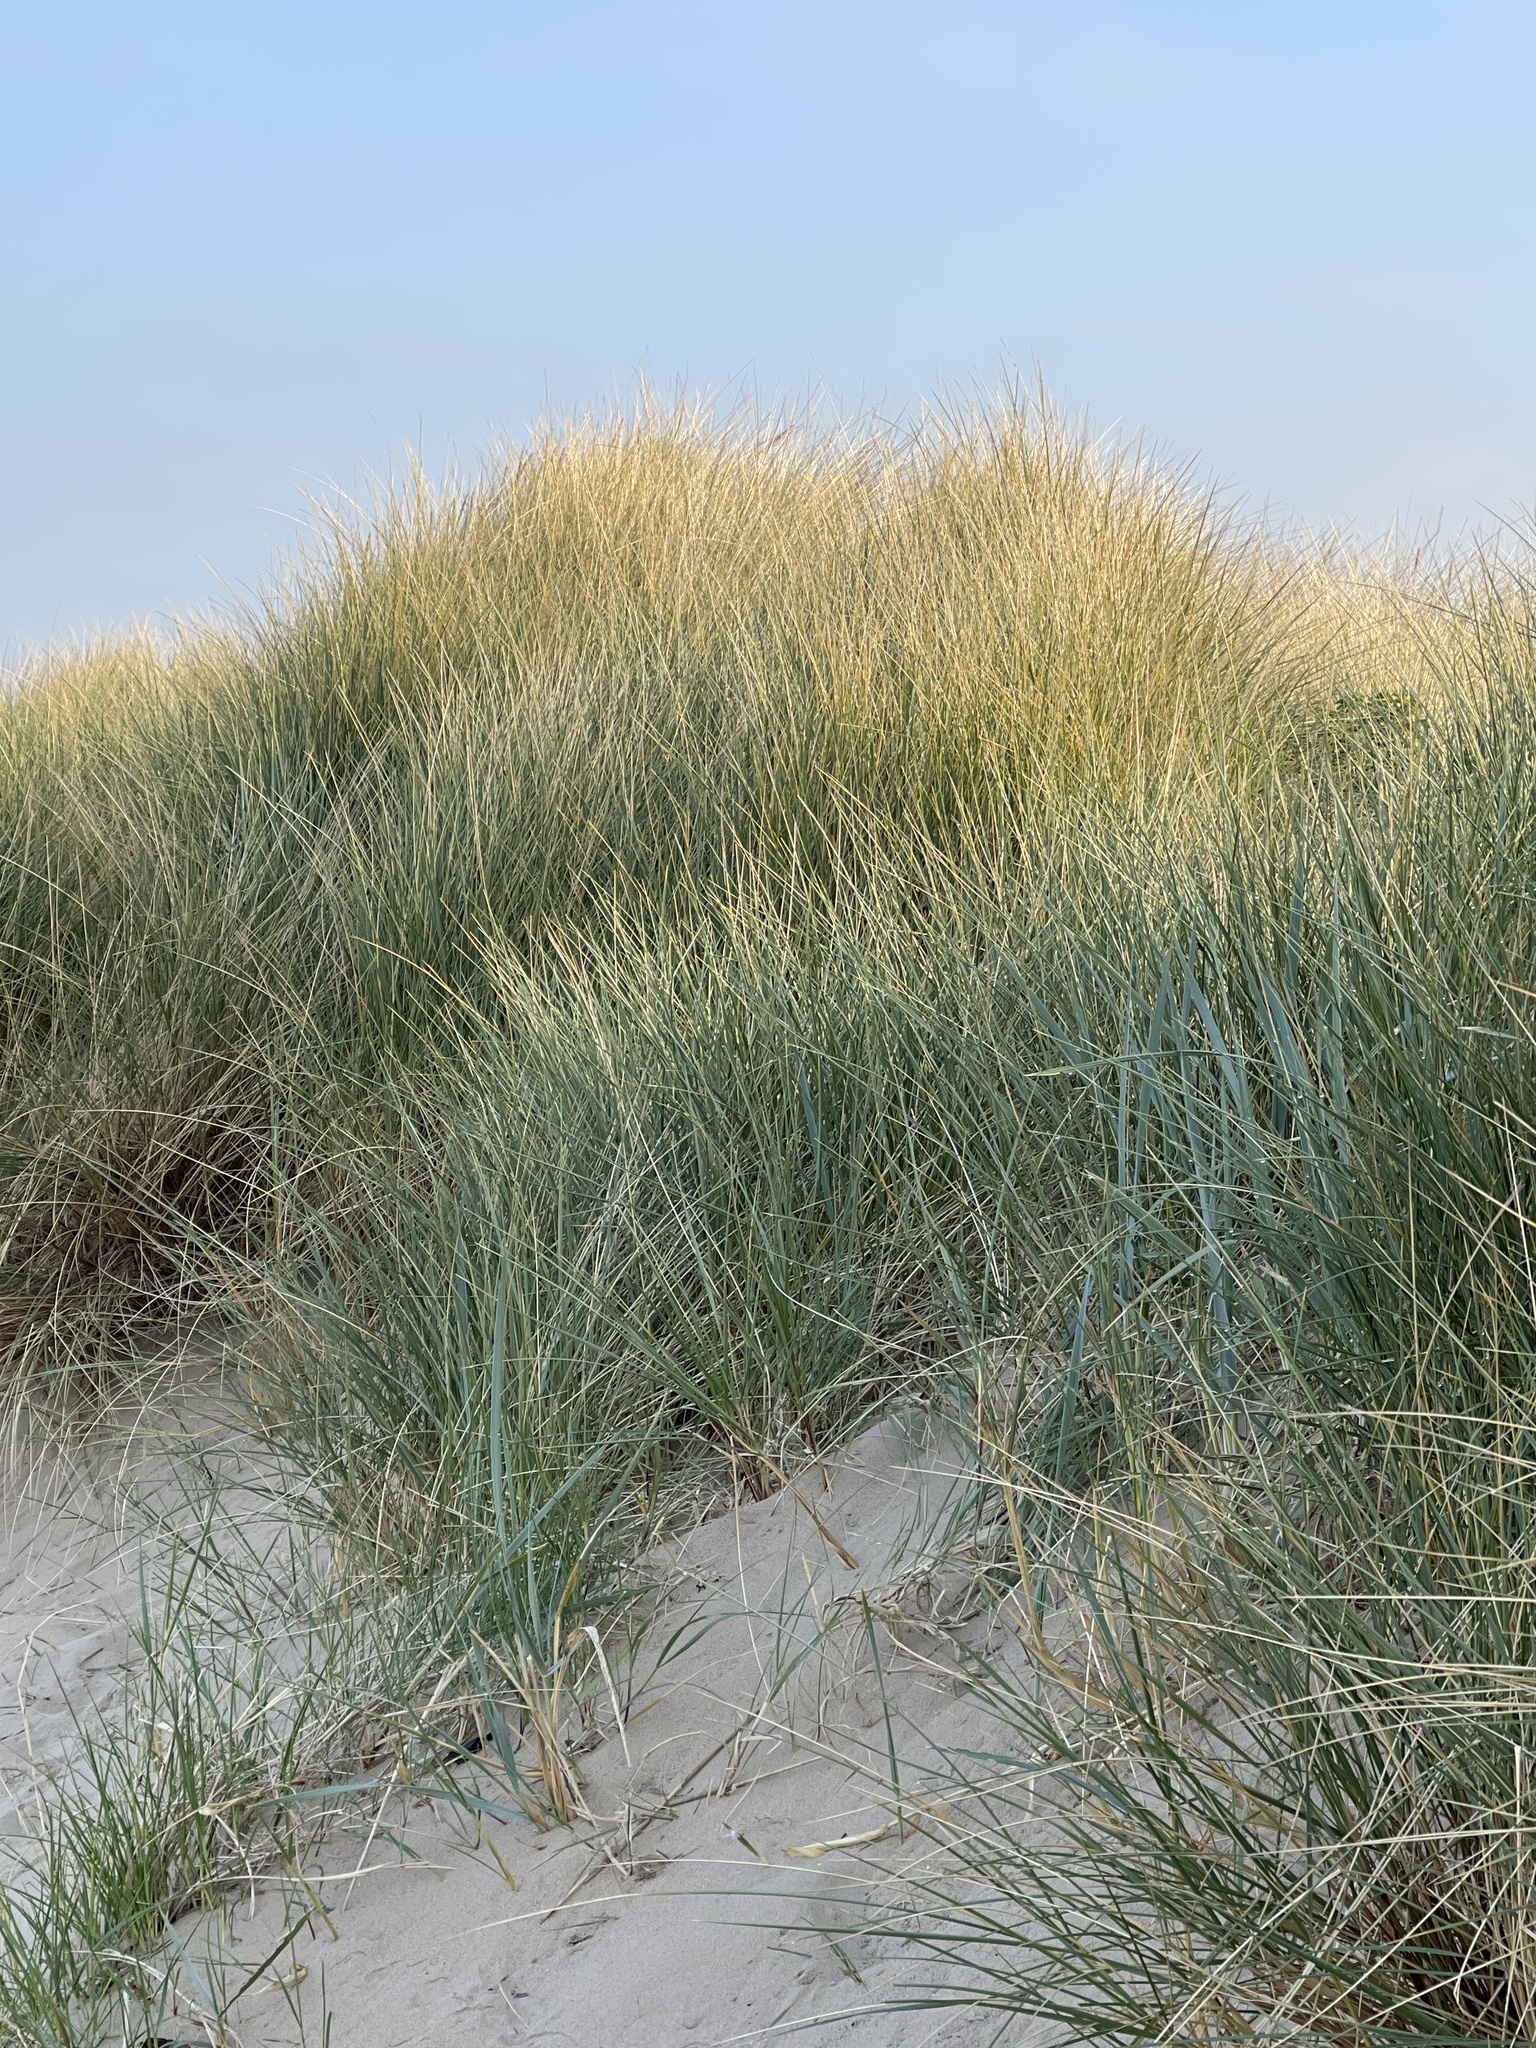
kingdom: Plantae
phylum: Tracheophyta
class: Liliopsida
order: Poales
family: Poaceae
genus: Calamagrostis
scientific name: Calamagrostis arenaria
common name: European beachgrass
